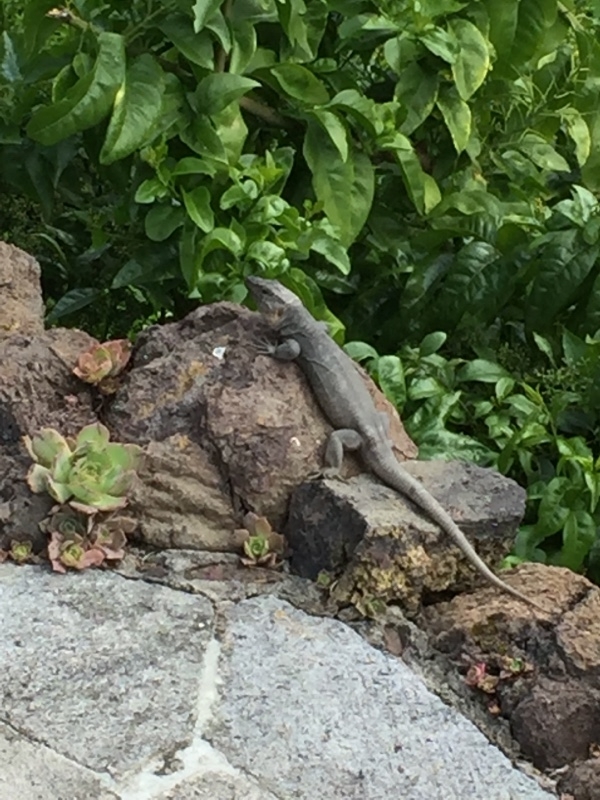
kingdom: Animalia
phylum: Chordata
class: Squamata
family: Lacertidae
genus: Gallotia
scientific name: Gallotia stehlini
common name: Gran canaria giant lizard
